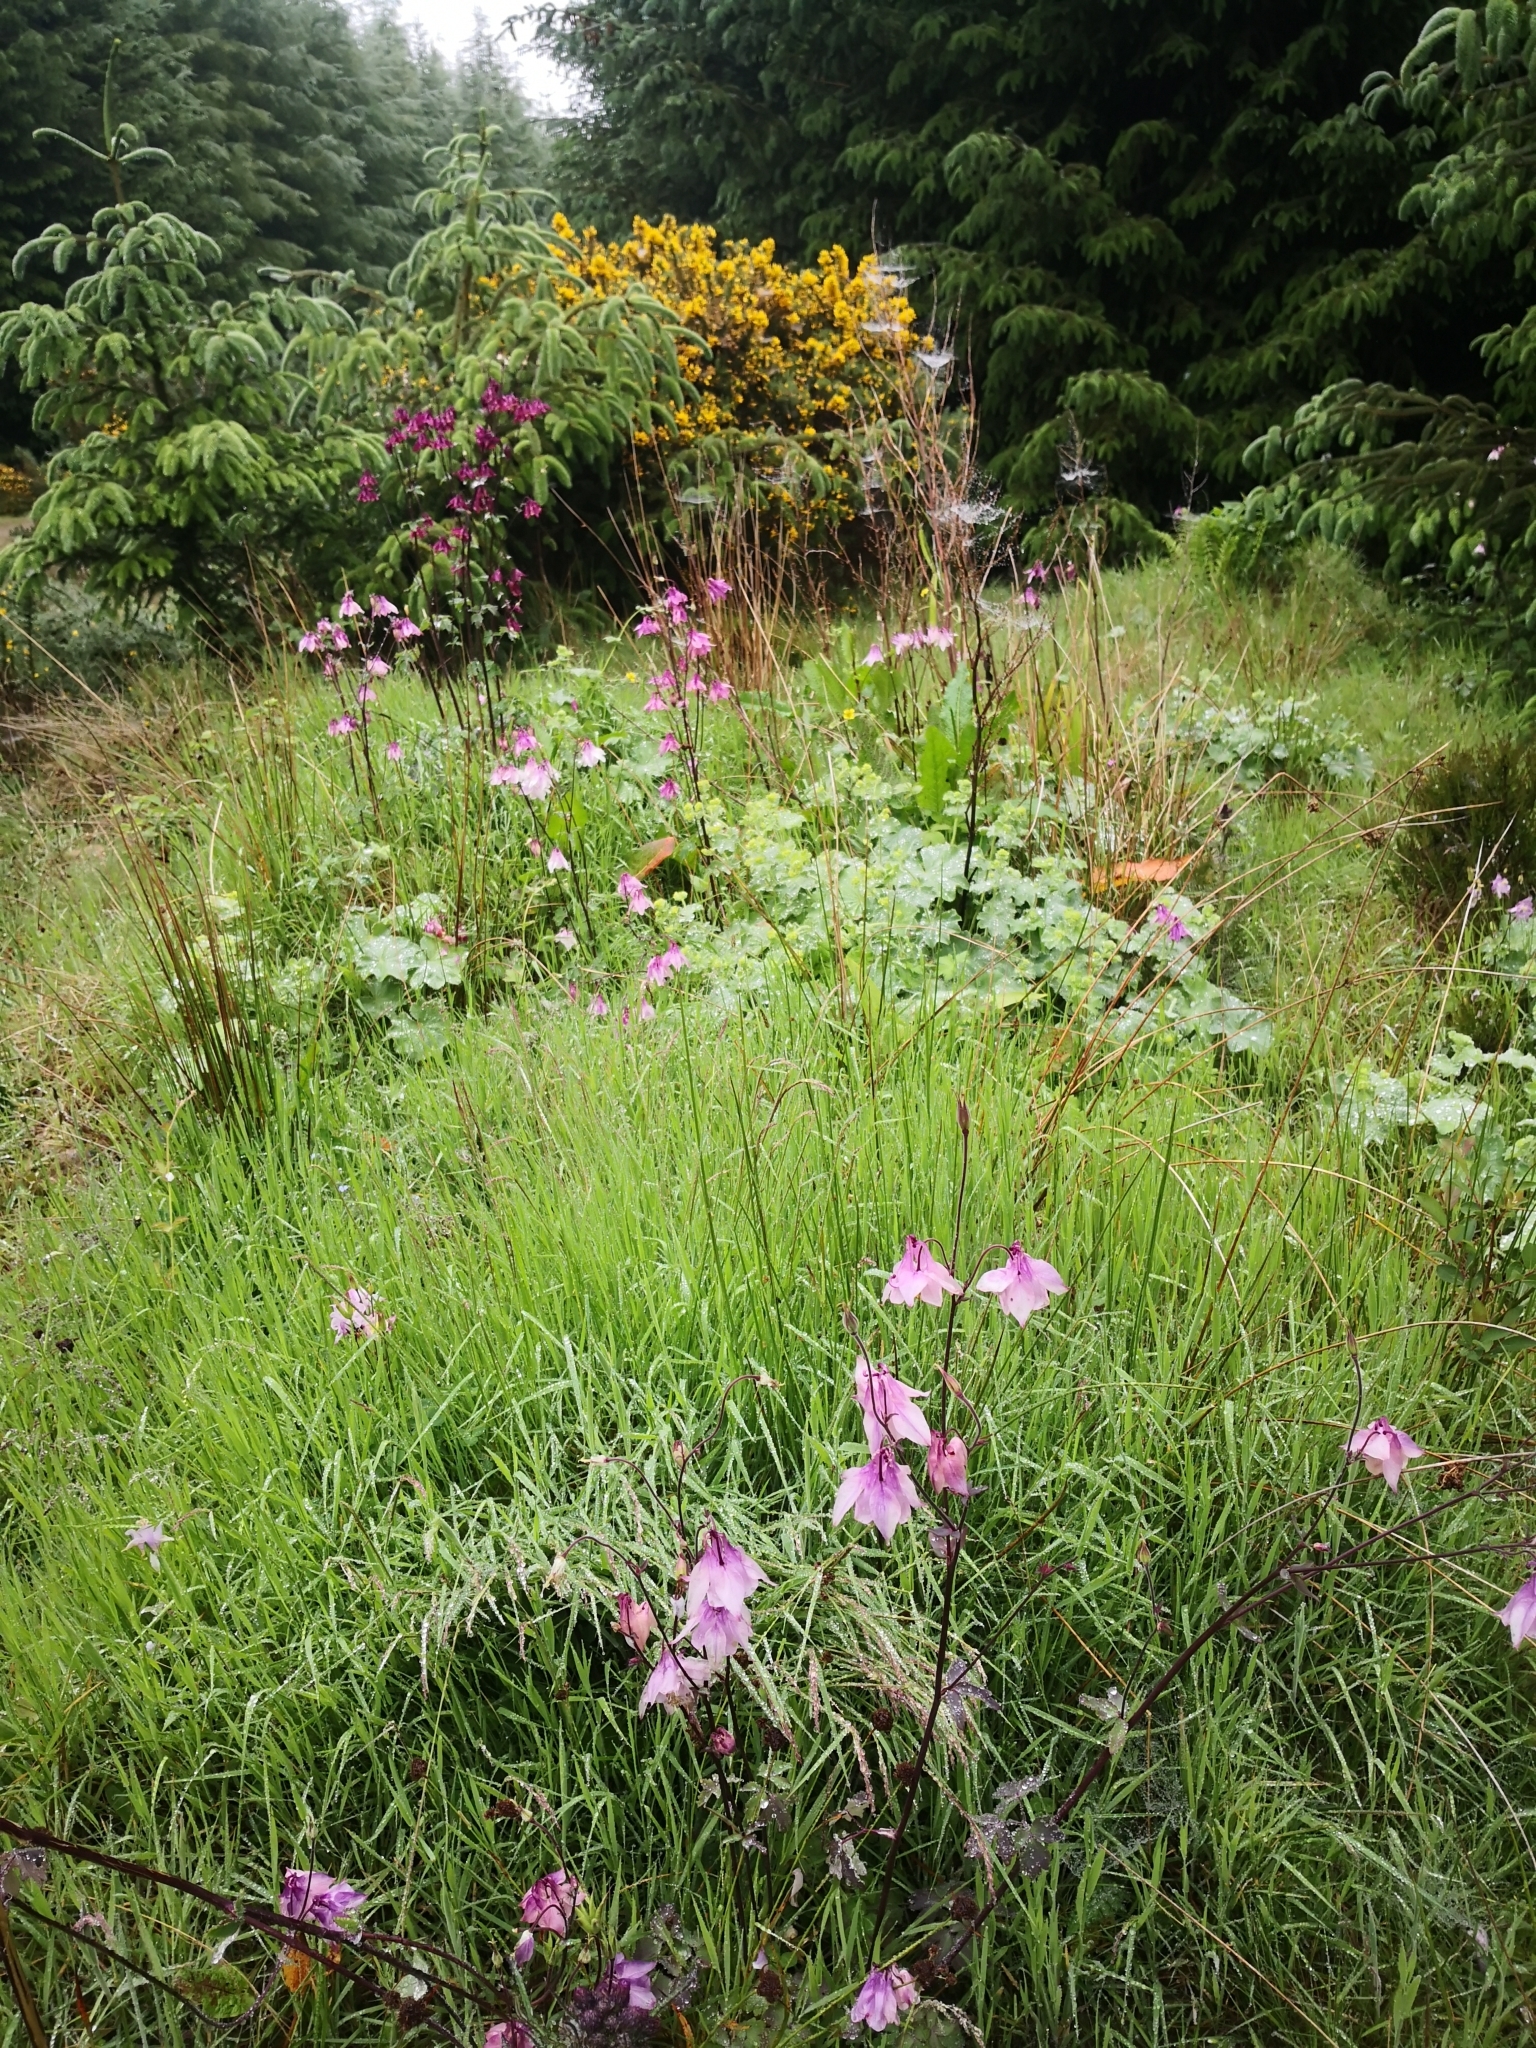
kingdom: Plantae
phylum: Tracheophyta
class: Magnoliopsida
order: Ranunculales
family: Ranunculaceae
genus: Aquilegia
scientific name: Aquilegia vulgaris
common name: Columbine
